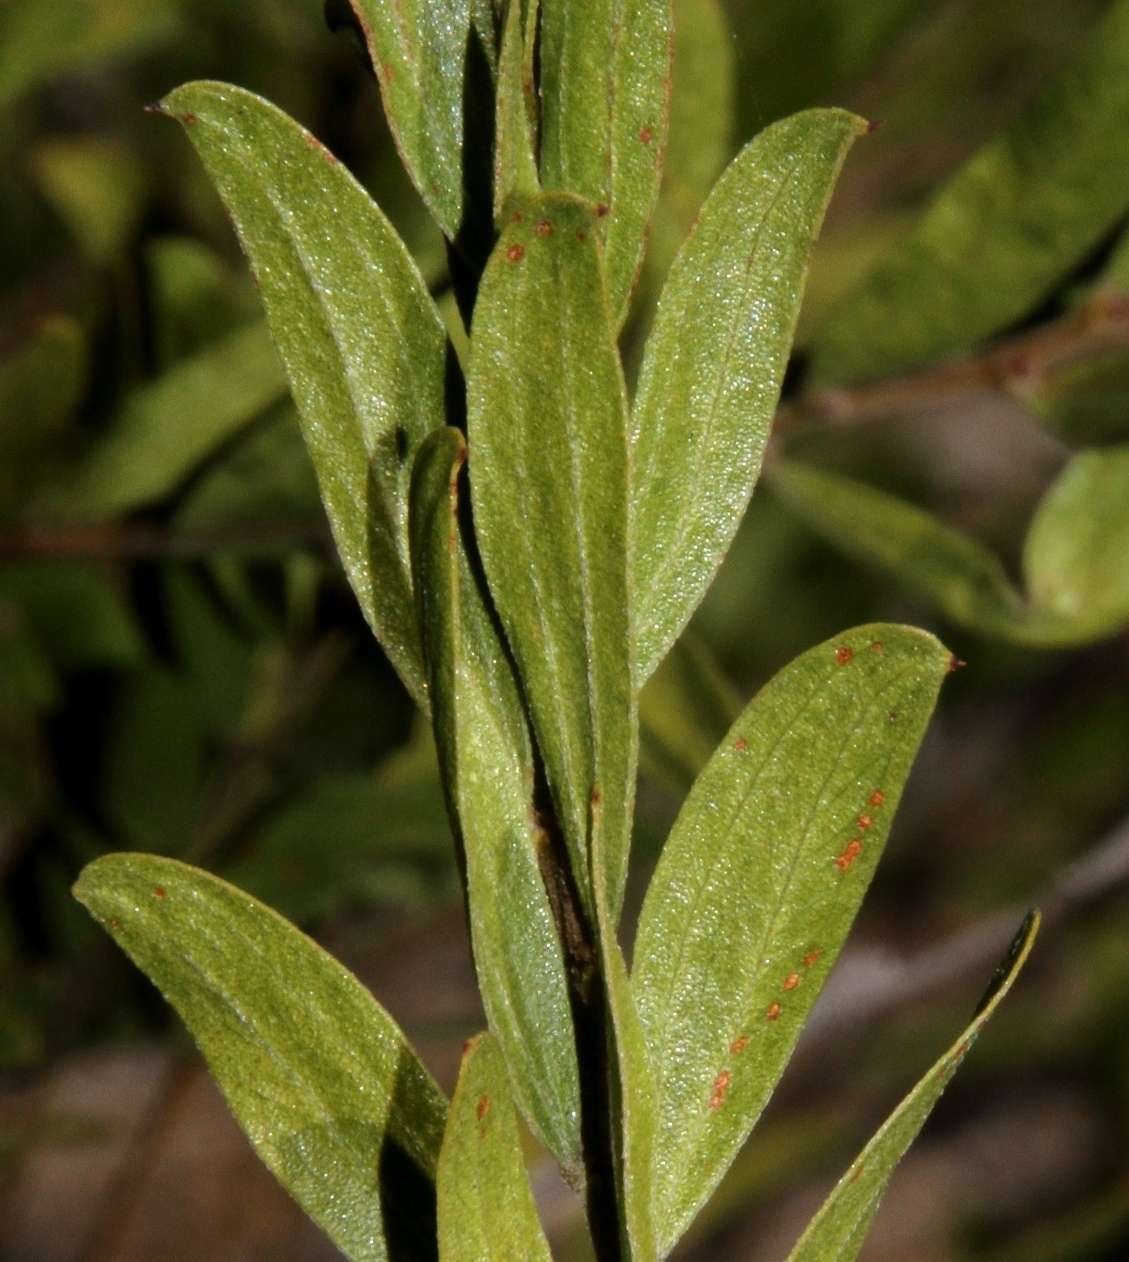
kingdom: Plantae
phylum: Tracheophyta
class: Magnoliopsida
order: Fabales
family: Fabaceae
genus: Acacia
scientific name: Acacia rostriformis
